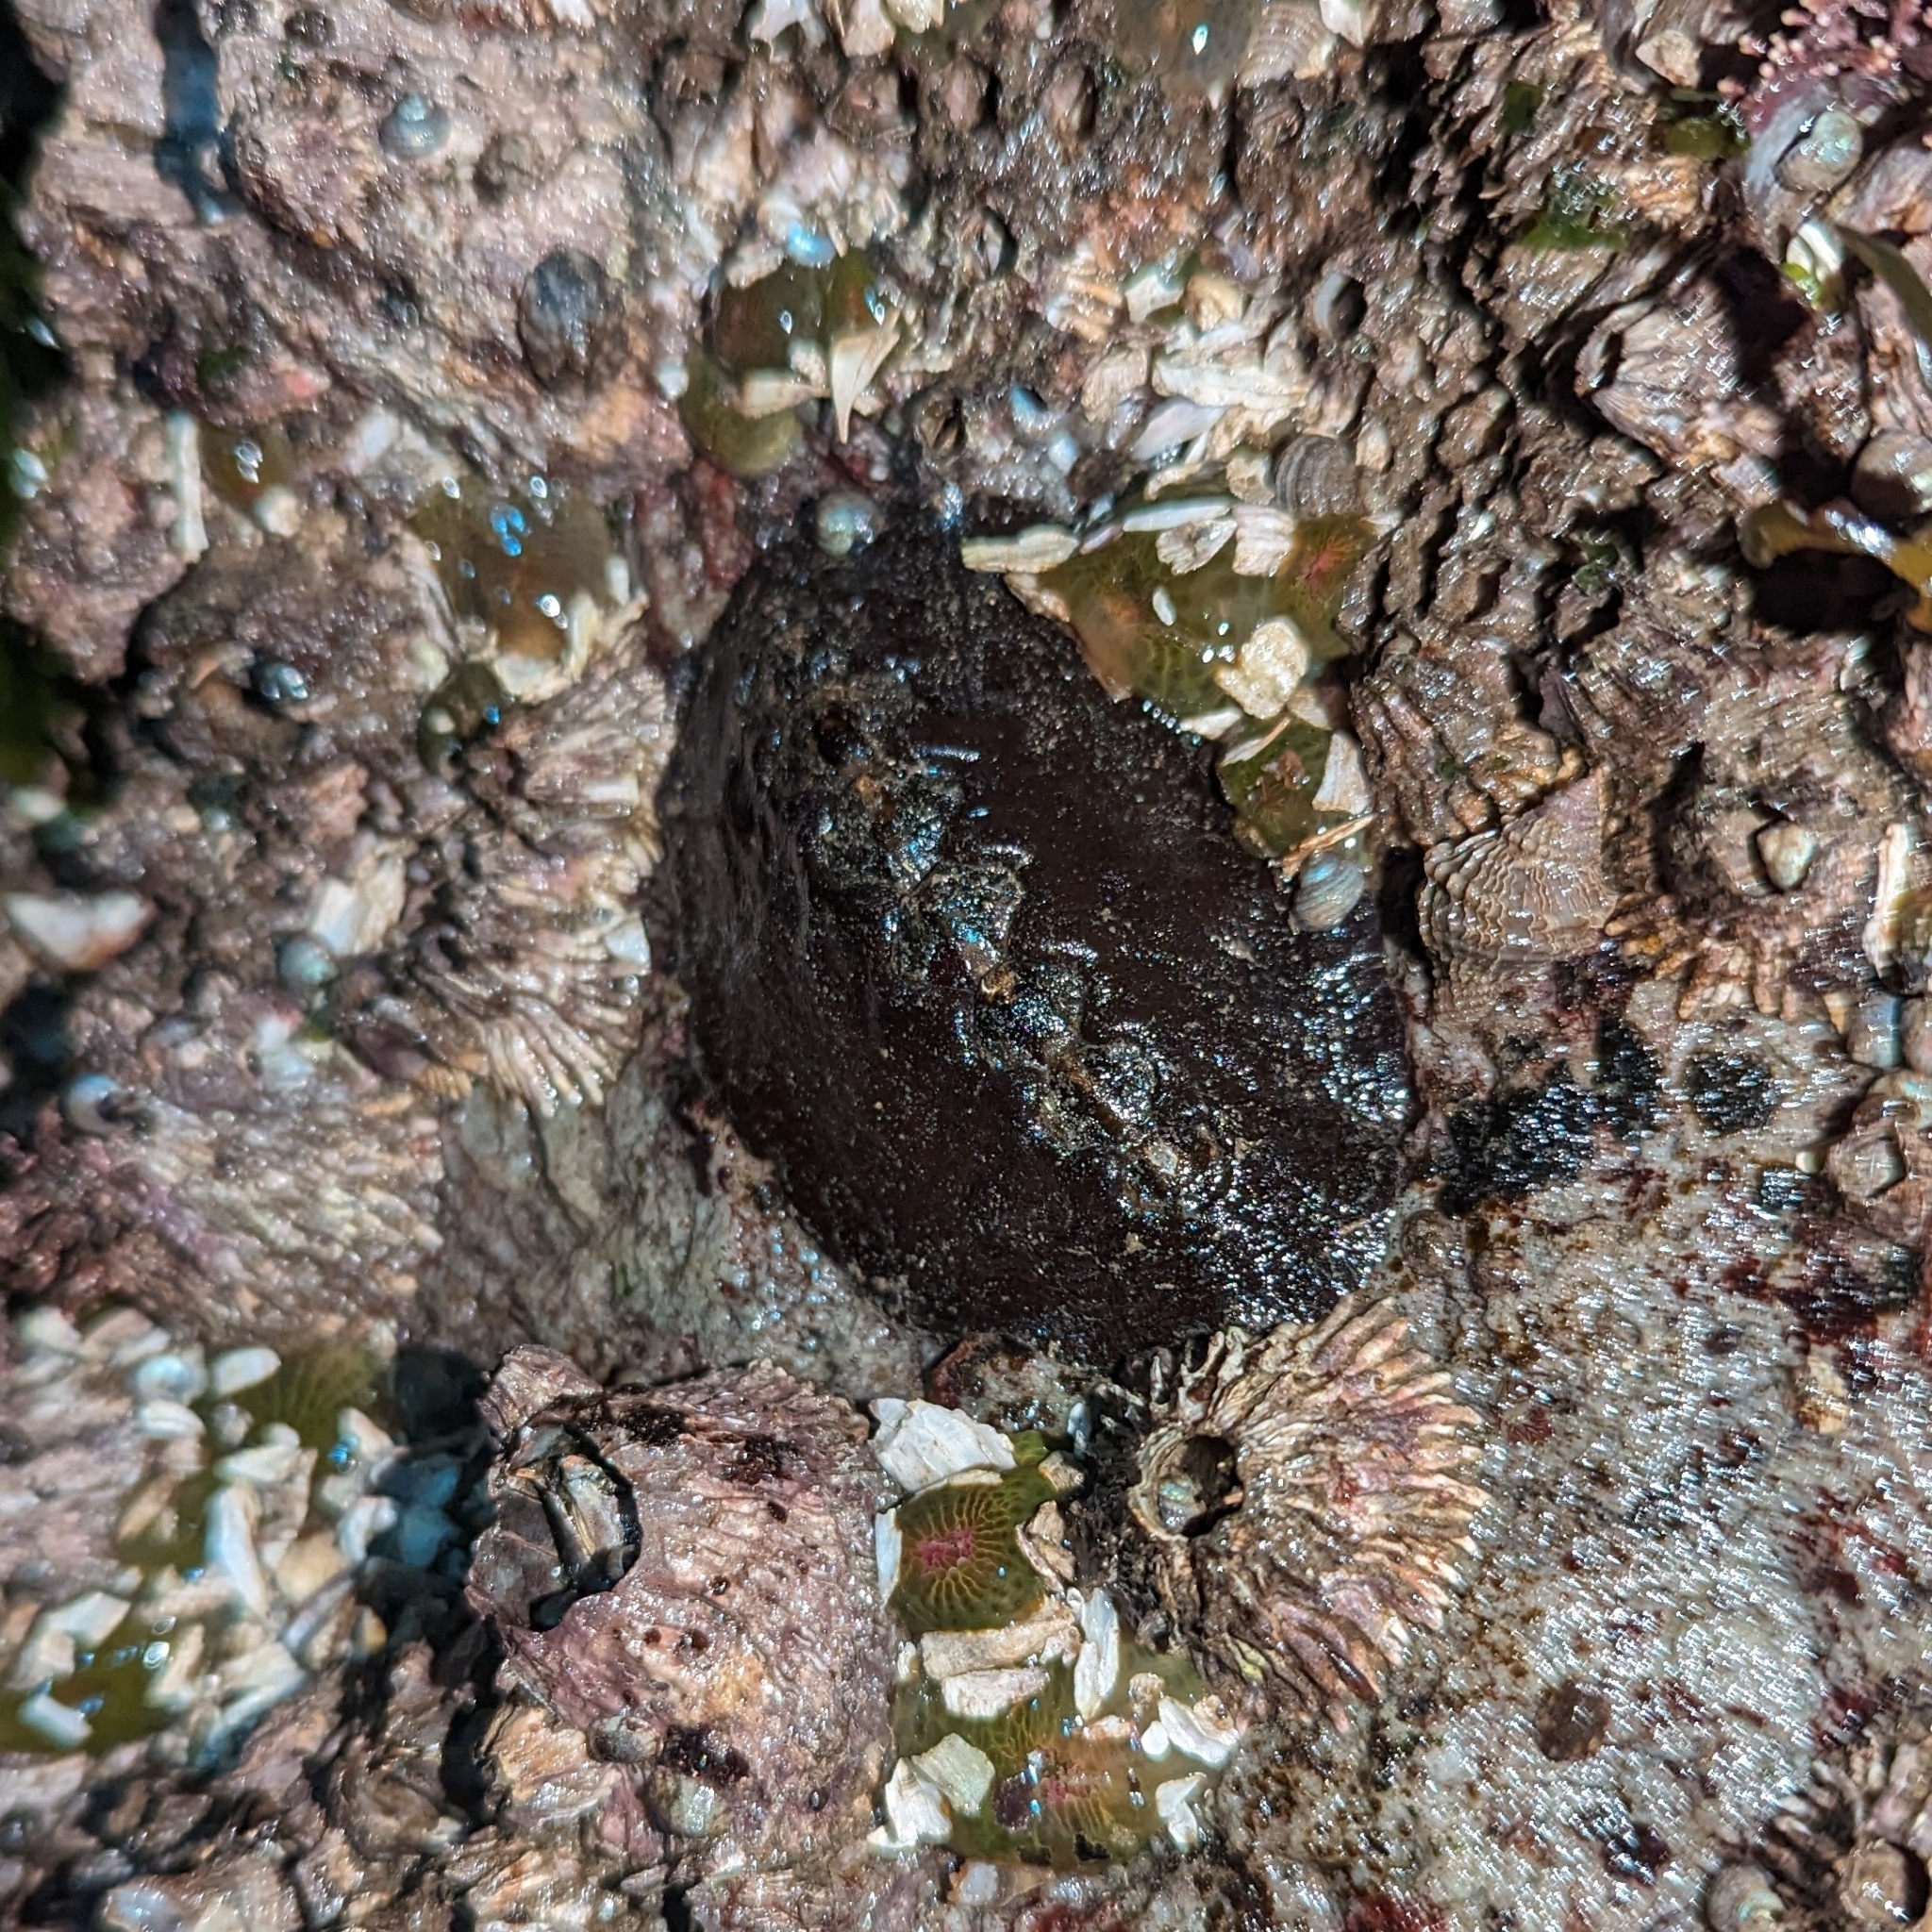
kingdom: Animalia
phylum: Mollusca
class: Polyplacophora
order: Chitonida
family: Mopaliidae
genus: Katharina
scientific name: Katharina tunicata
